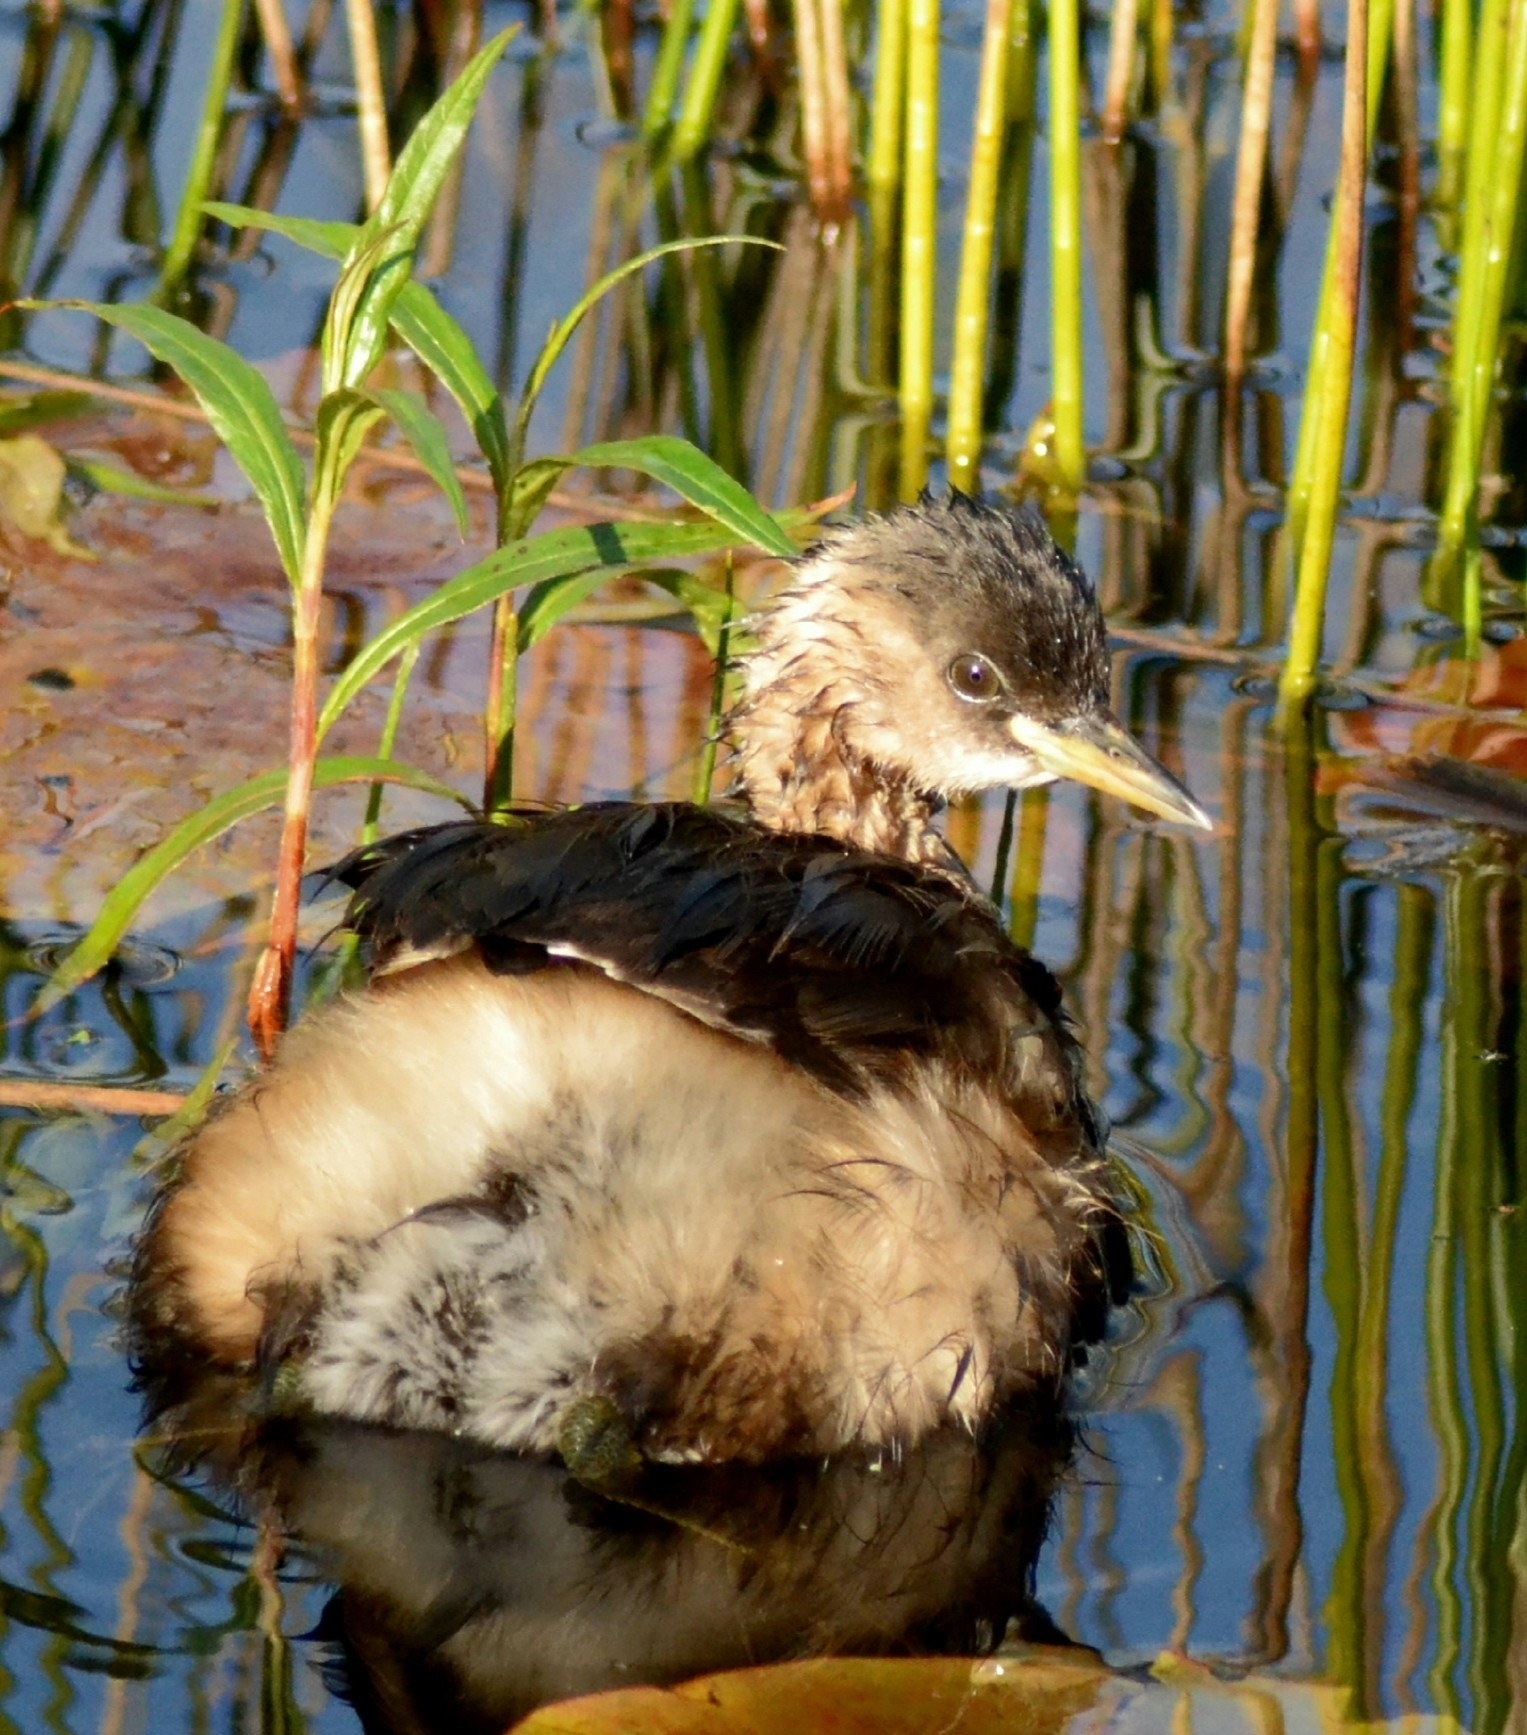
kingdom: Animalia
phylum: Chordata
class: Aves
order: Podicipediformes
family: Podicipedidae
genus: Tachybaptus
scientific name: Tachybaptus ruficollis
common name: Little grebe
